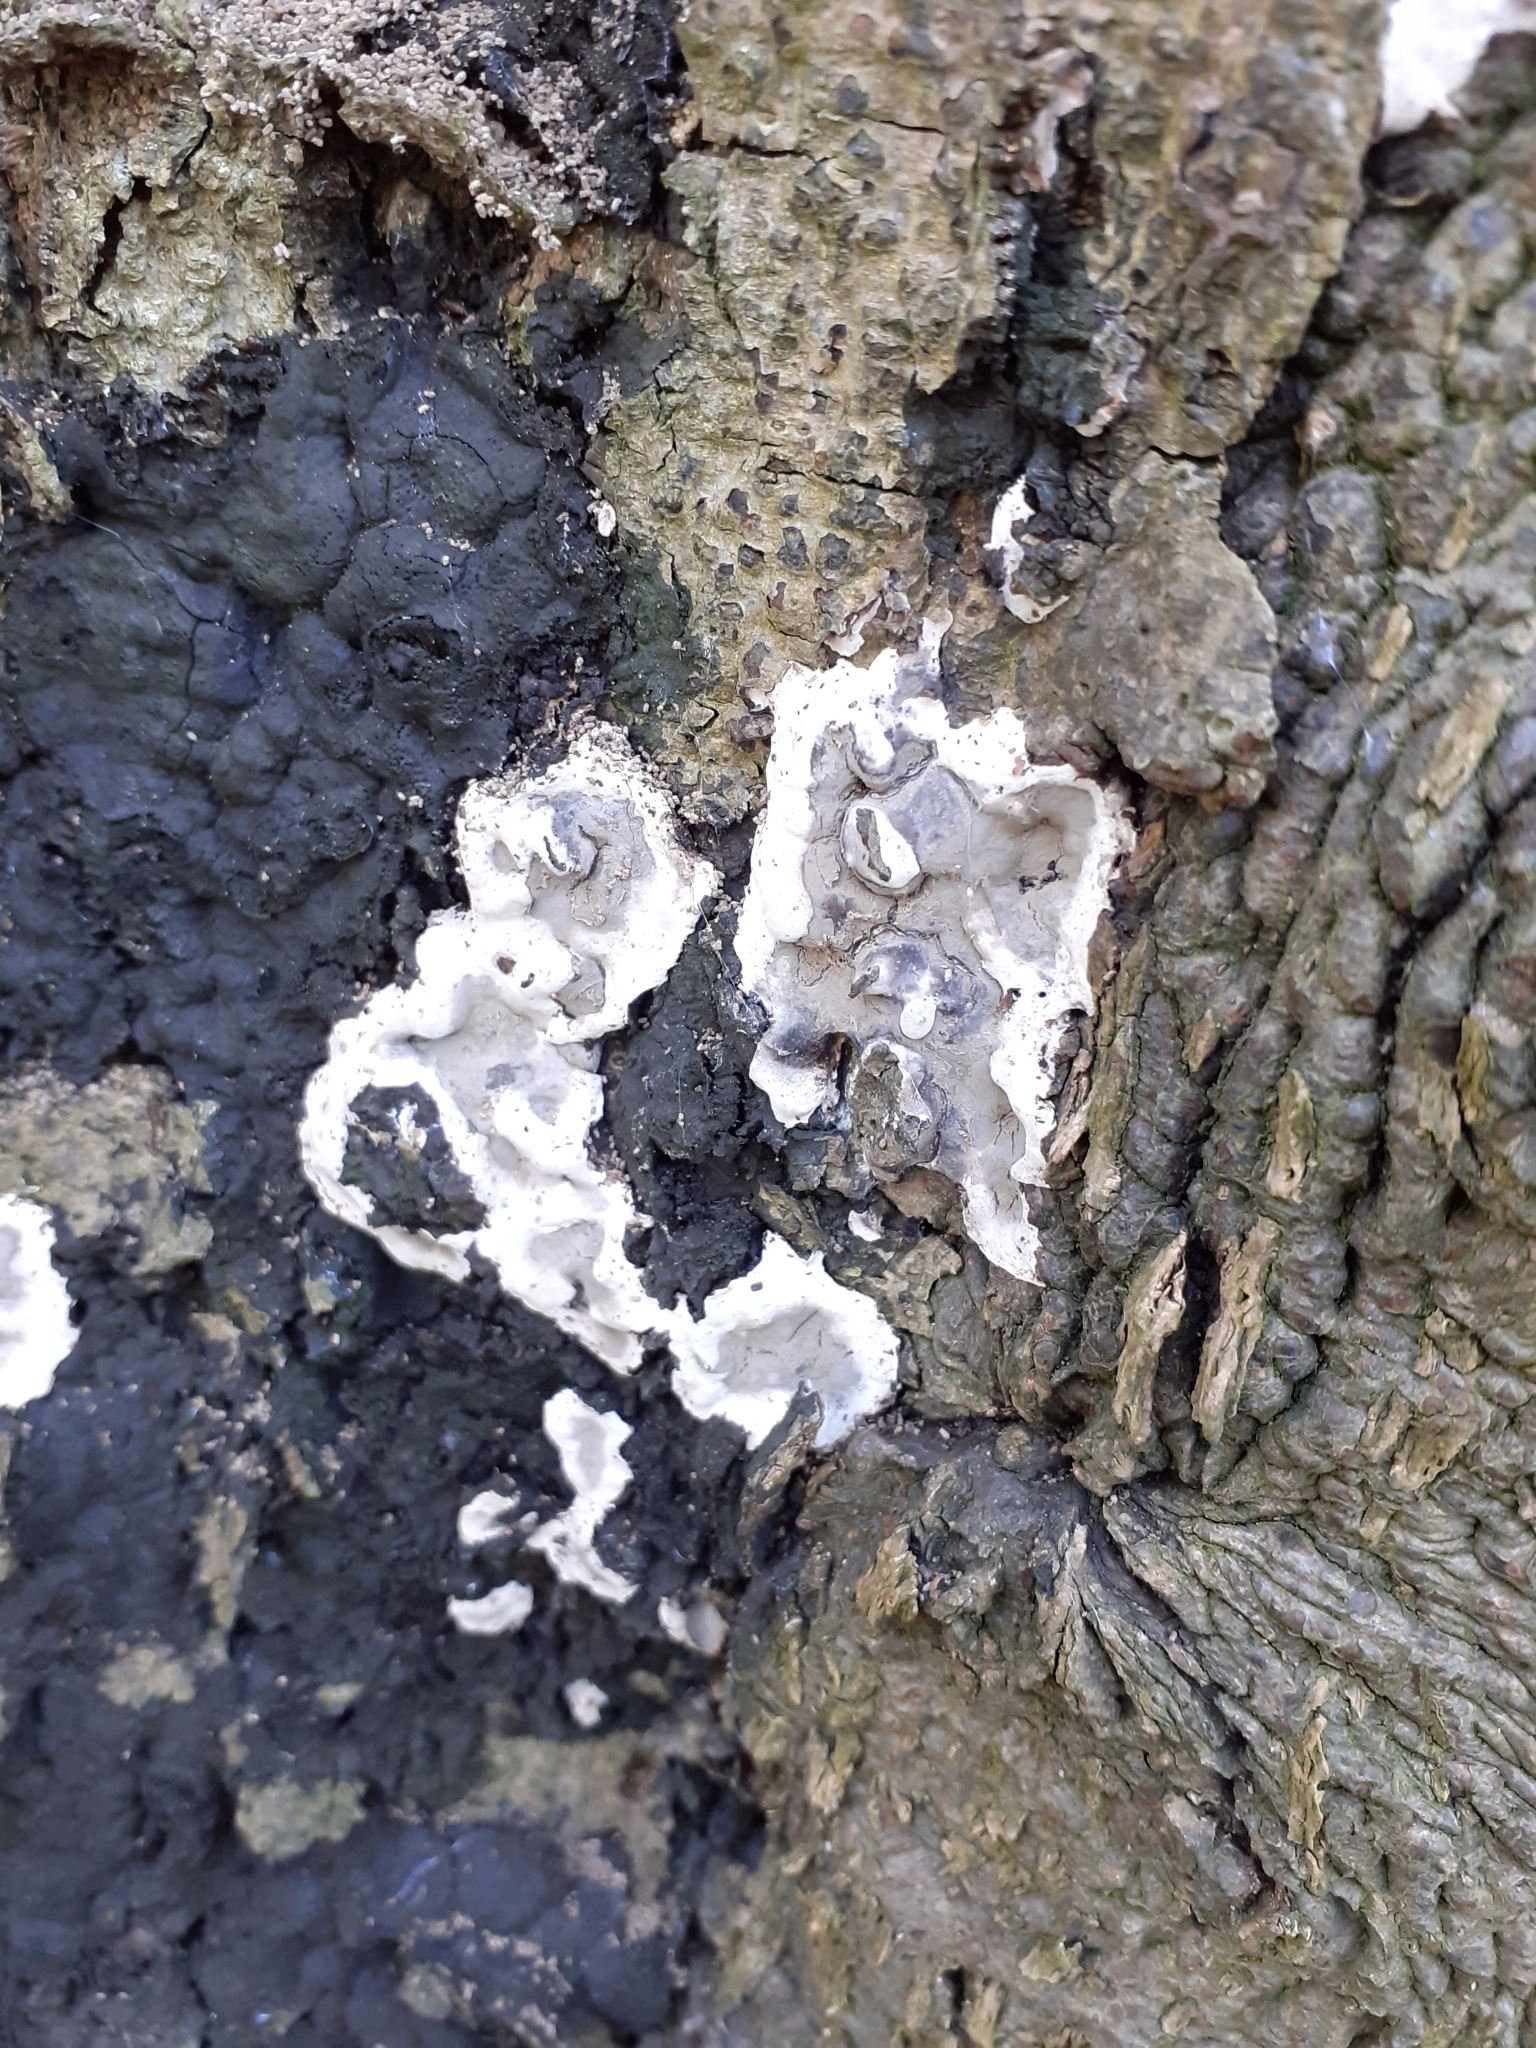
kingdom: Fungi
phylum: Ascomycota
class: Sordariomycetes
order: Xylariales
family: Xylariaceae
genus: Kretzschmaria
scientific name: Kretzschmaria deusta
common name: Brittle cinder
